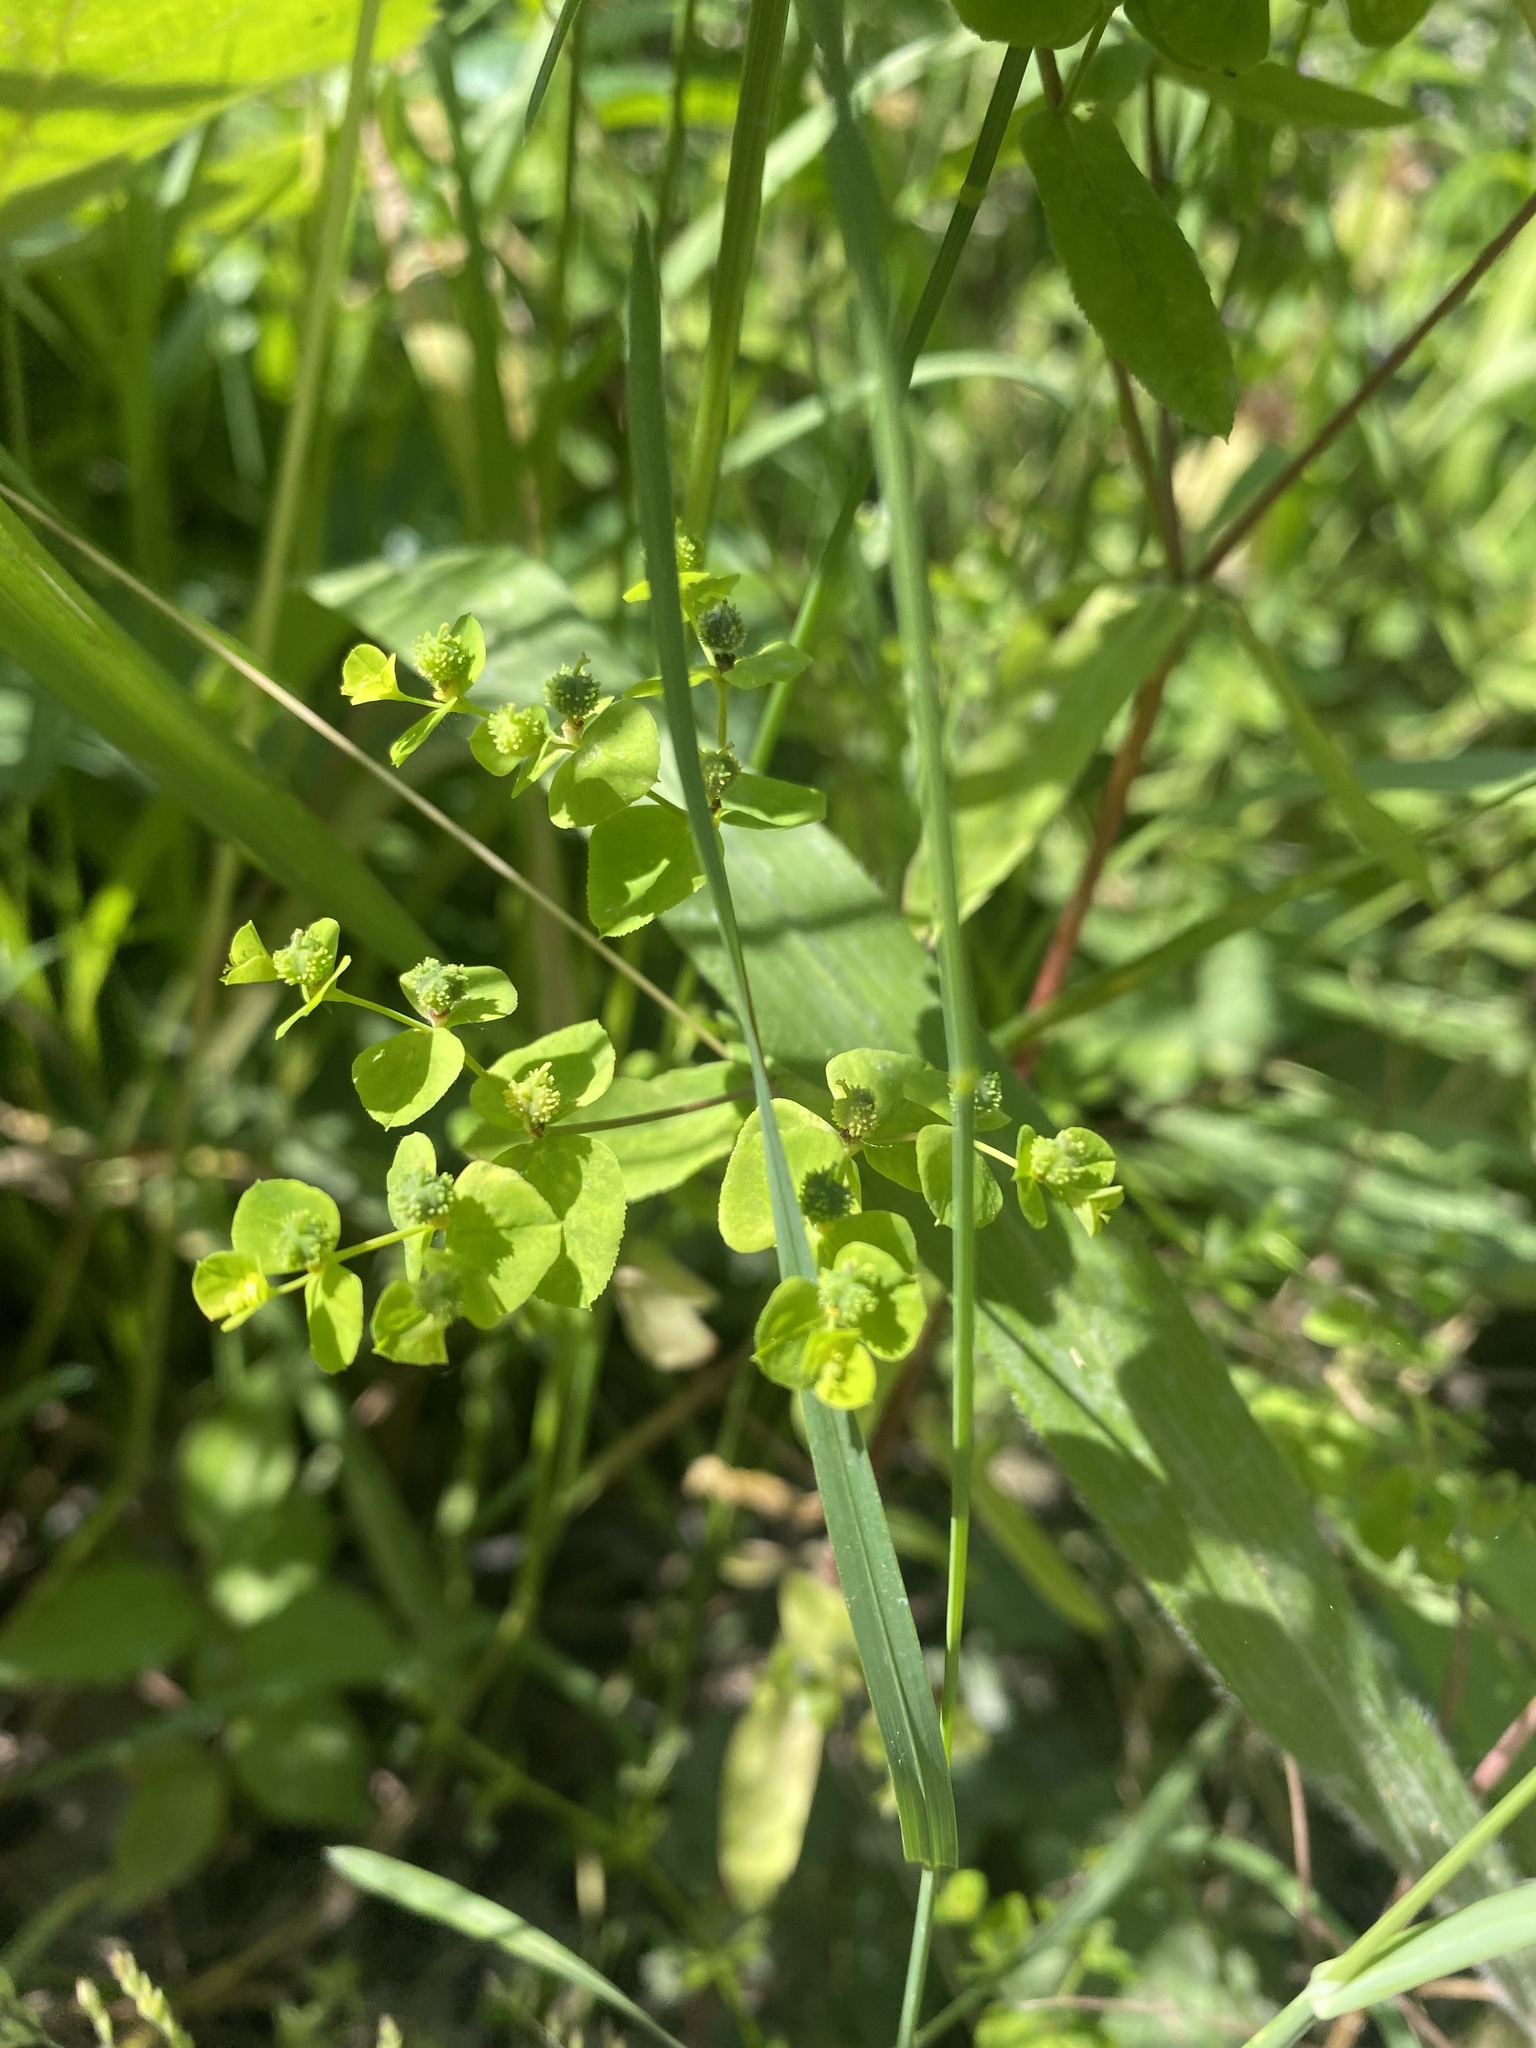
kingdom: Plantae
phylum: Tracheophyta
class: Magnoliopsida
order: Malpighiales
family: Euphorbiaceae
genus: Euphorbia
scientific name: Euphorbia stricta
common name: Upright spurge
